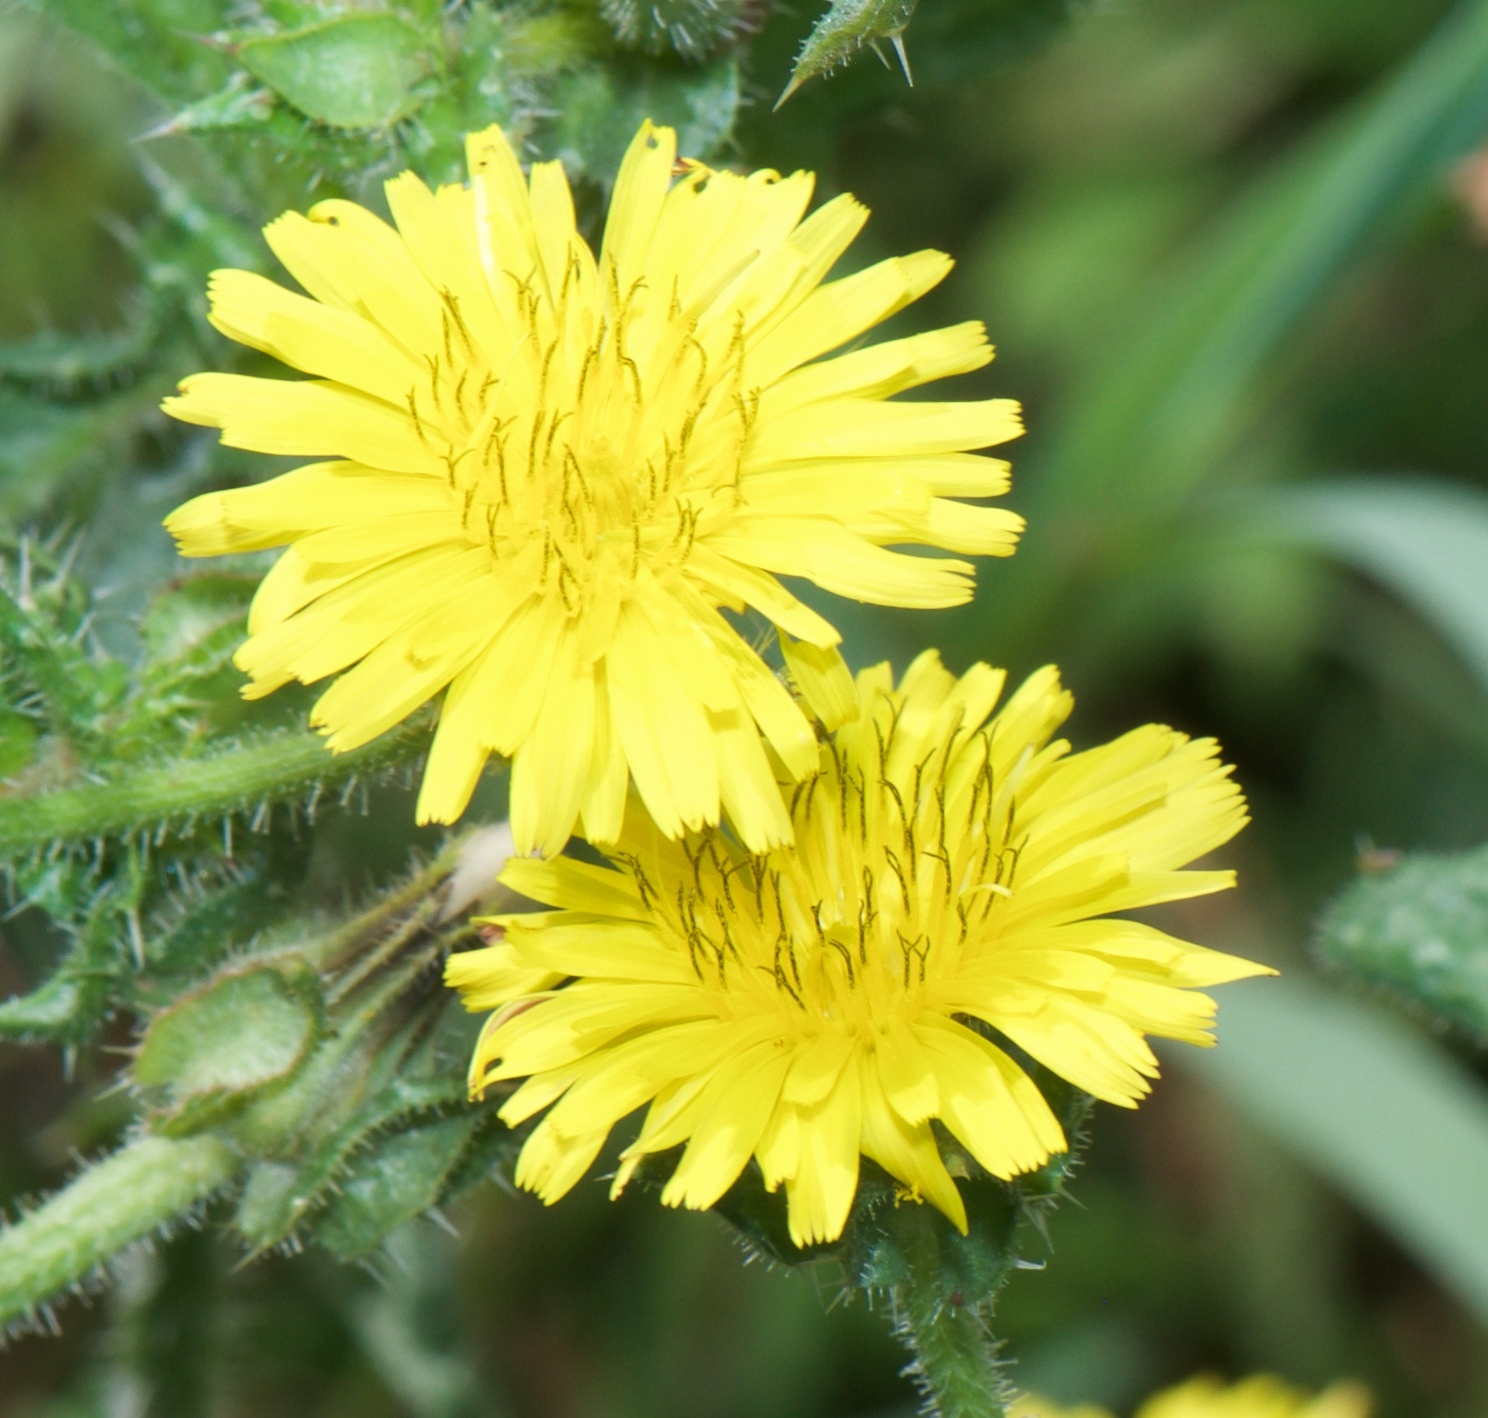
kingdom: Plantae
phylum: Tracheophyta
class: Magnoliopsida
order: Asterales
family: Asteraceae
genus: Helminthotheca
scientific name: Helminthotheca echioides
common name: Ox-tongue
